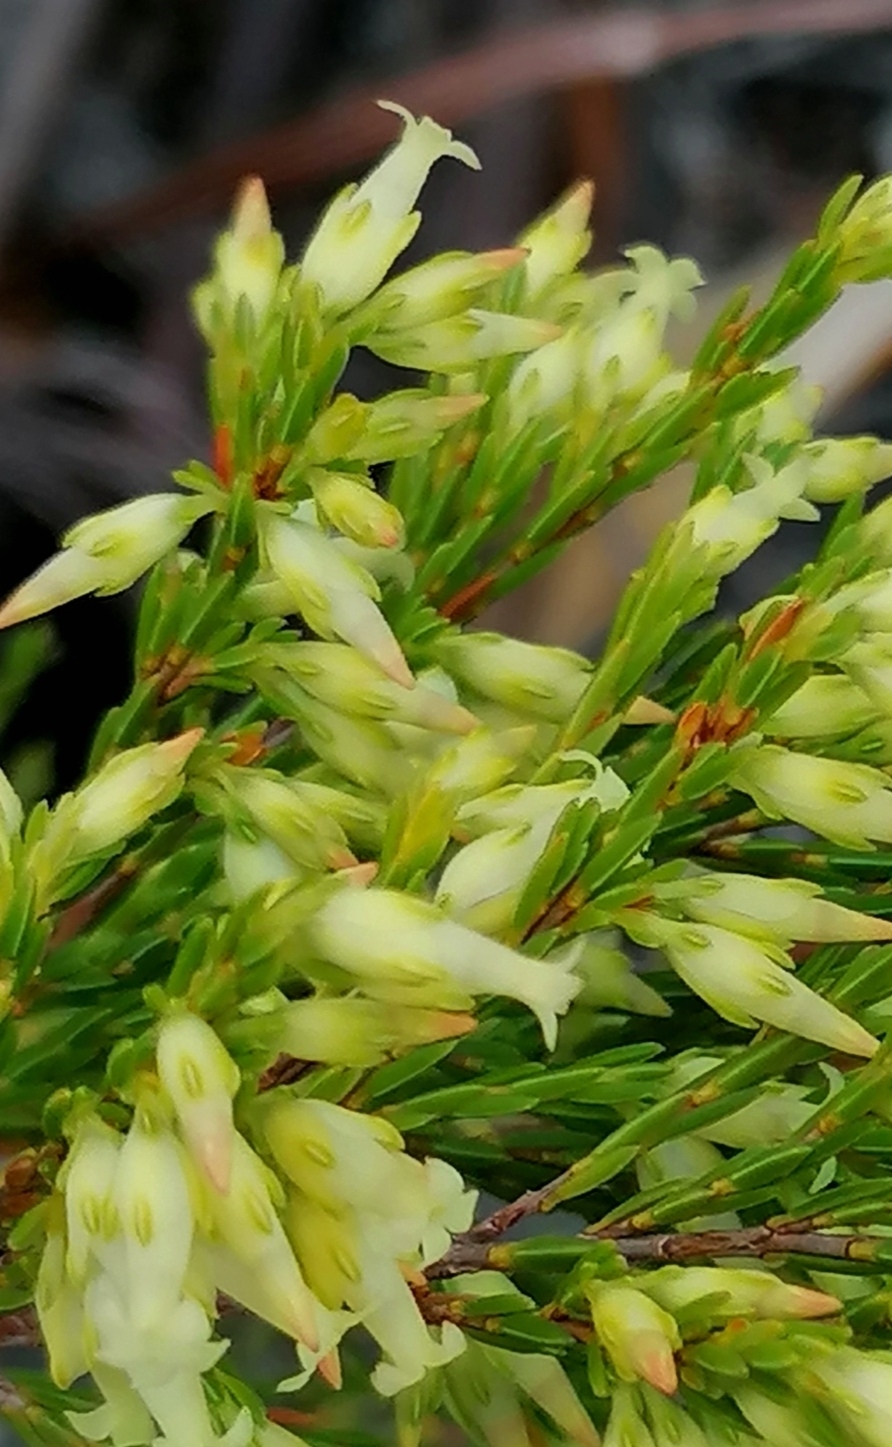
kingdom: Plantae
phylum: Tracheophyta
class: Magnoliopsida
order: Ericales
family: Ericaceae
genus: Erica
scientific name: Erica lutea
